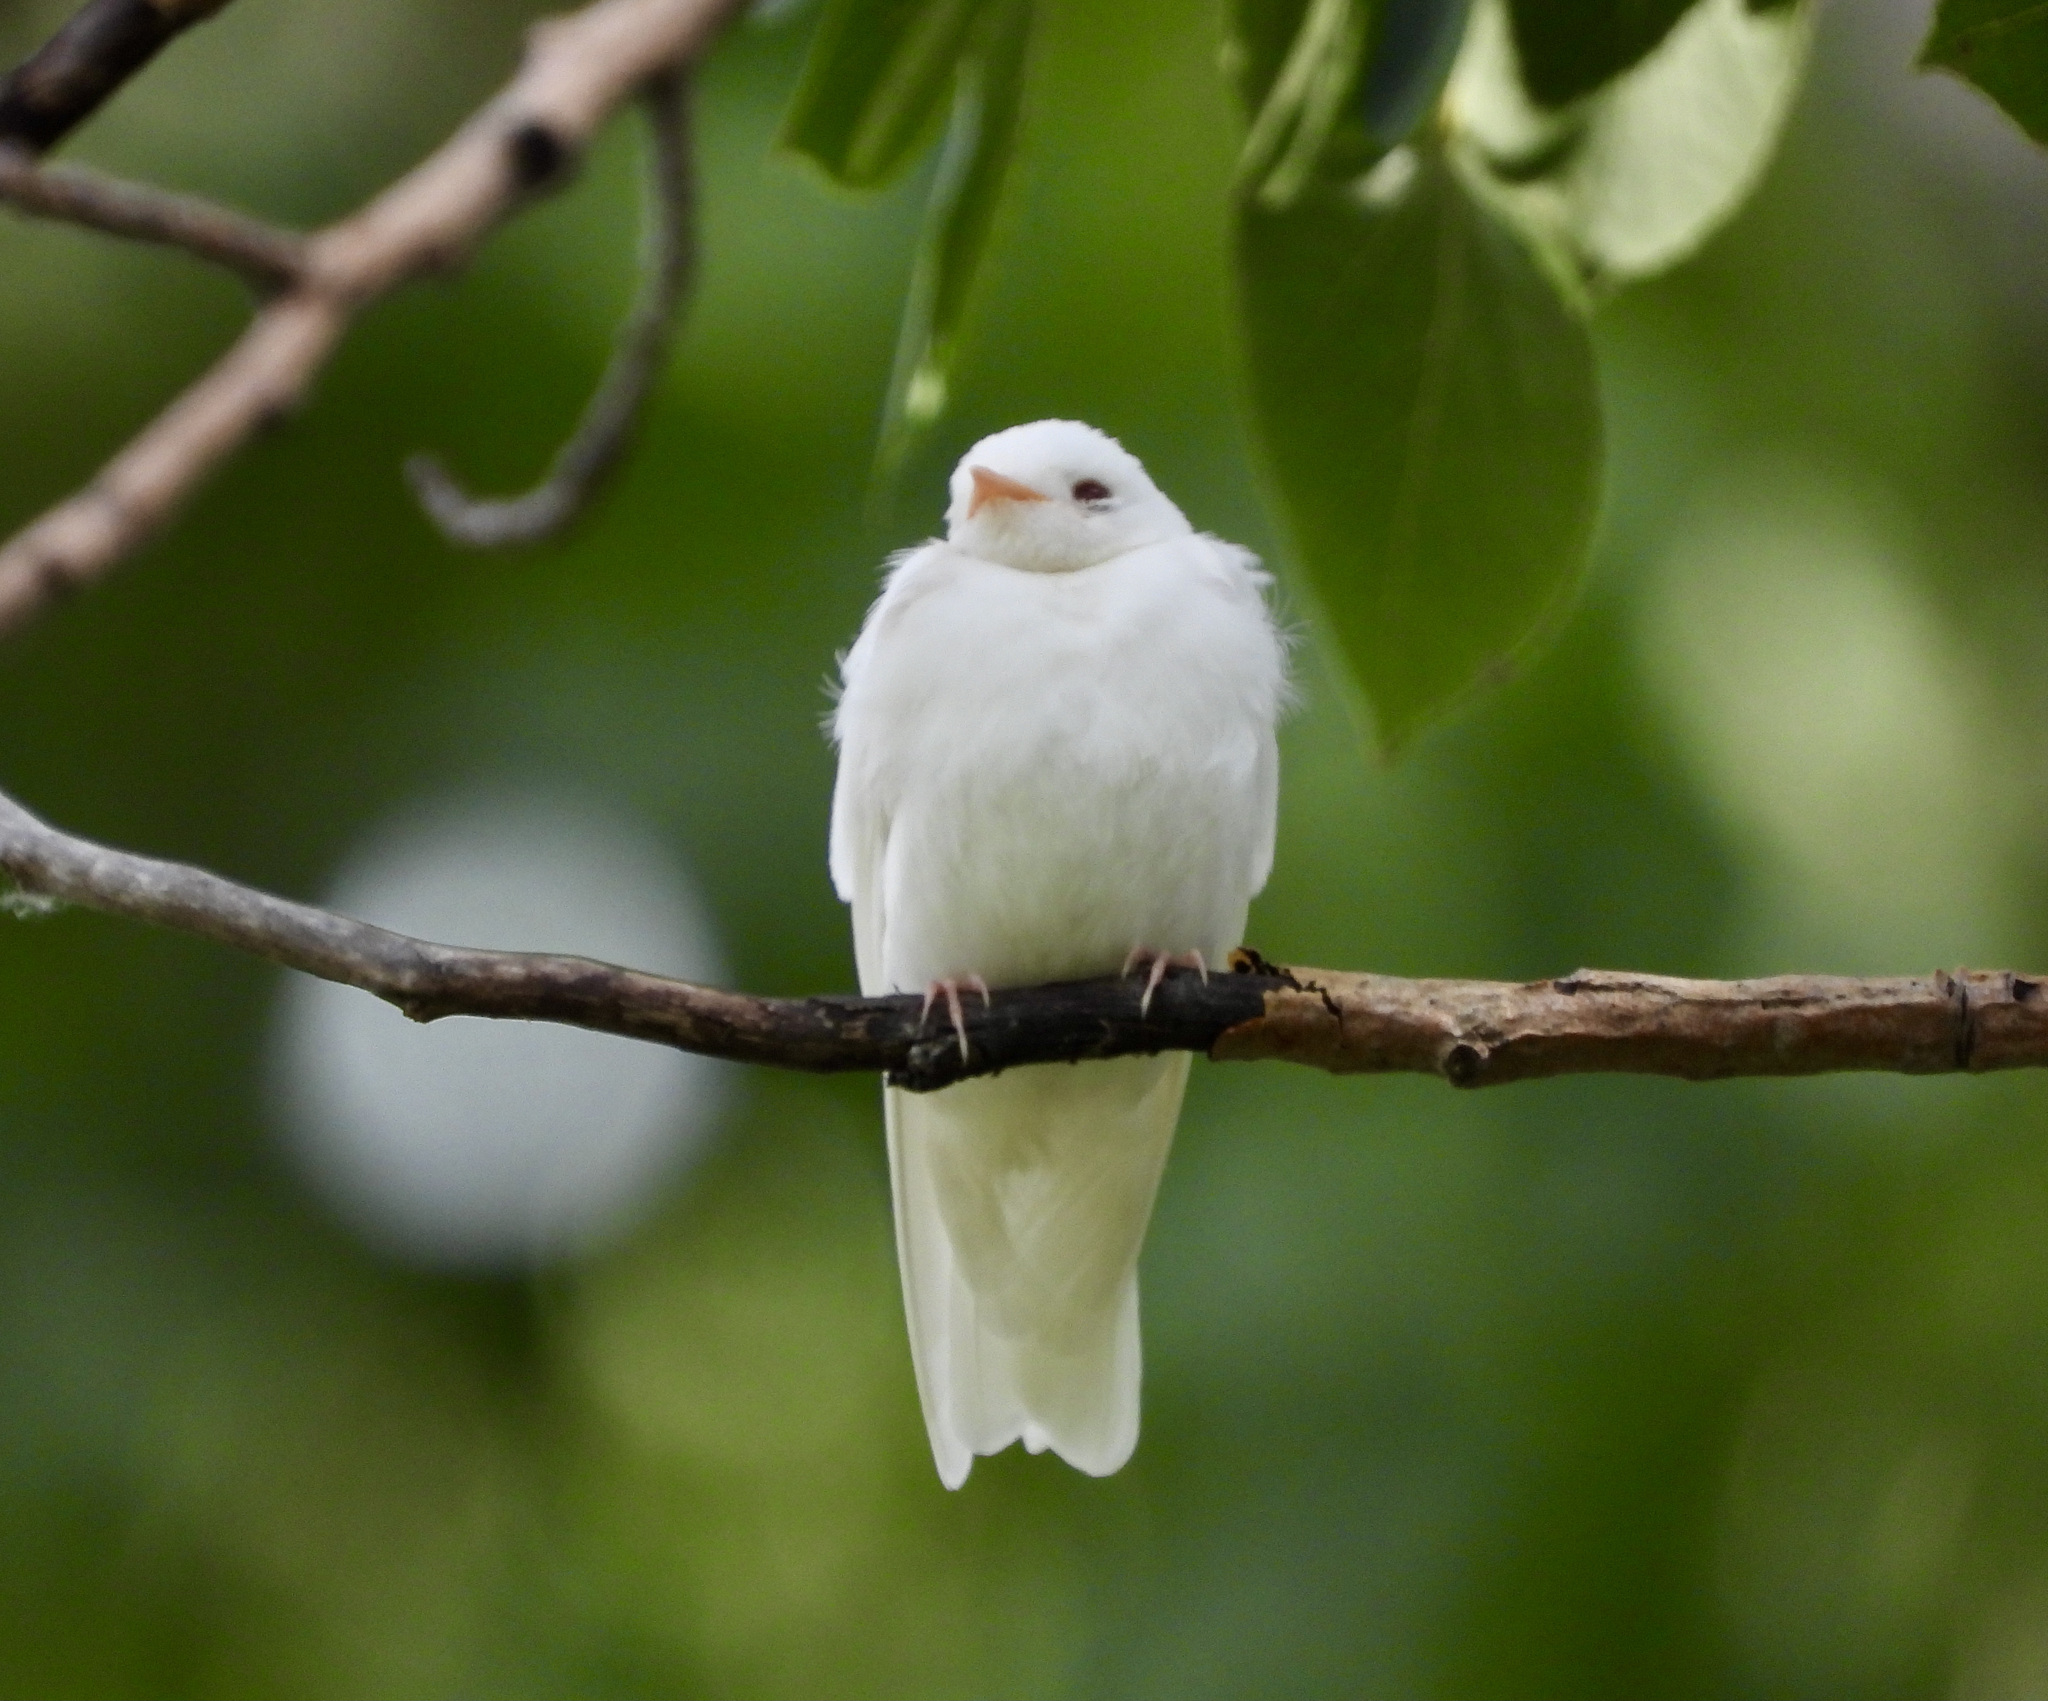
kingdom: Animalia
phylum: Chordata
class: Aves
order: Passeriformes
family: Hirundinidae
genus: Stelgidopteryx
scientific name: Stelgidopteryx serripennis
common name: Northern rough-winged swallow
